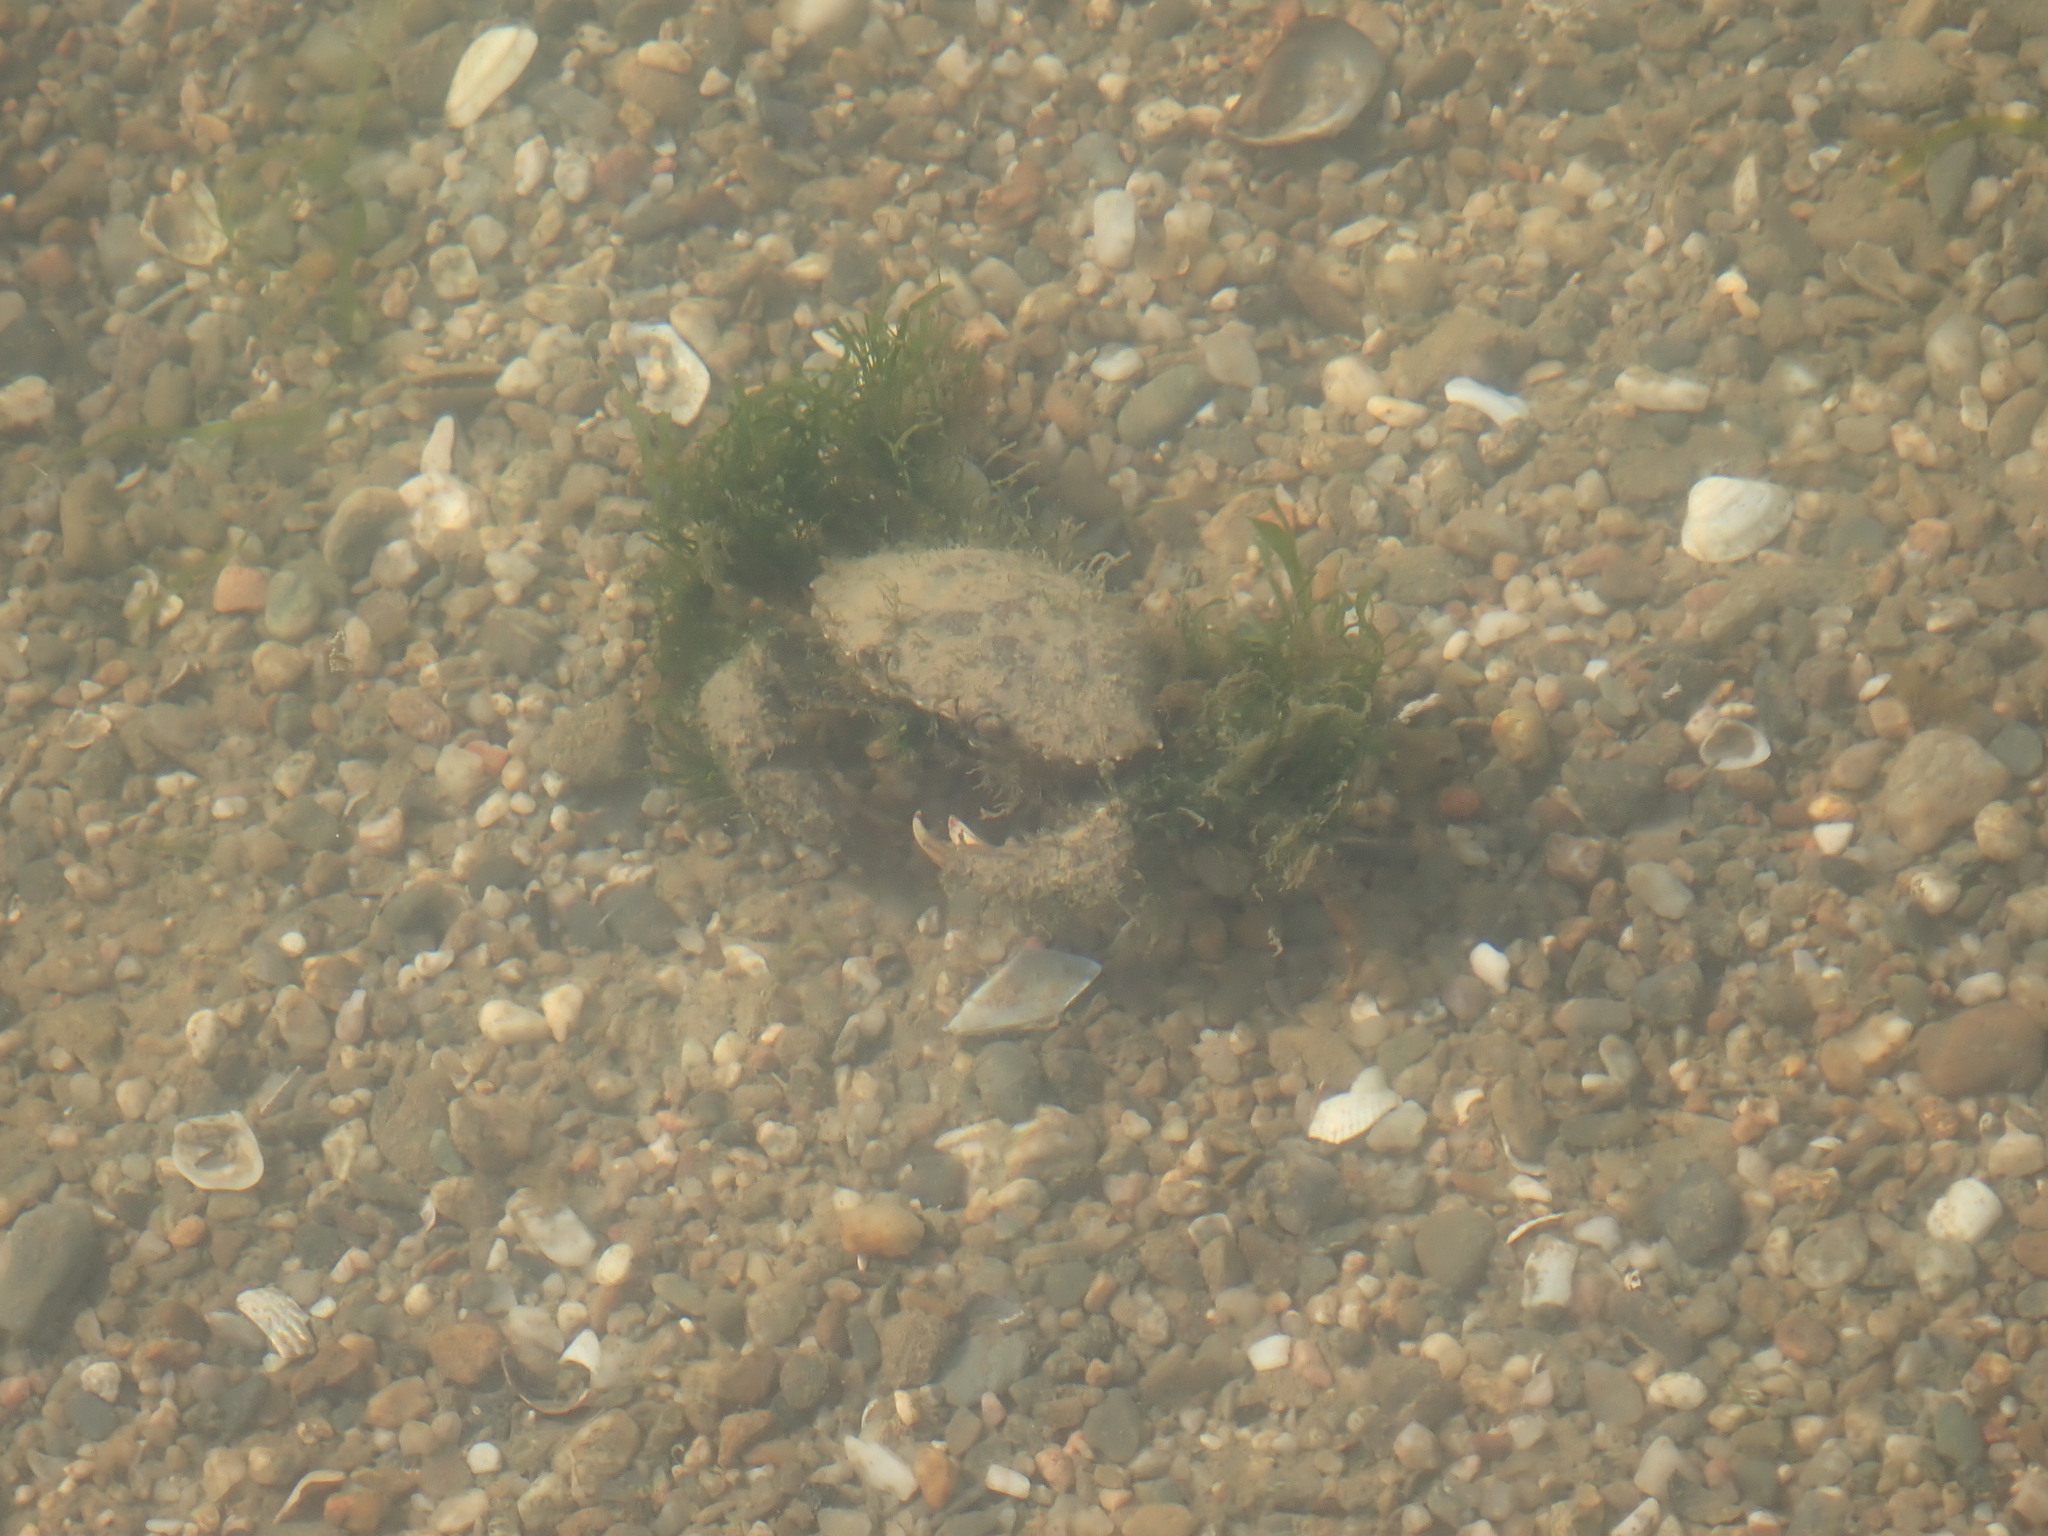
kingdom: Animalia
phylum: Arthropoda
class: Malacostraca
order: Decapoda
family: Carcinidae
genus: Carcinus
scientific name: Carcinus aestuarii
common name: Mediterranean green crab
